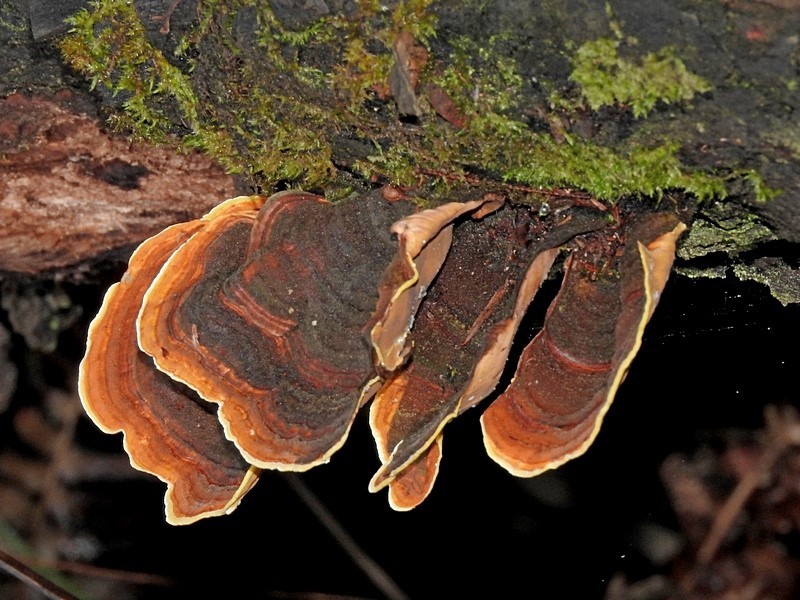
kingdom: Fungi
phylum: Basidiomycota
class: Agaricomycetes
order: Russulales
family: Stereaceae
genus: Stereum
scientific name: Stereum versicolor
